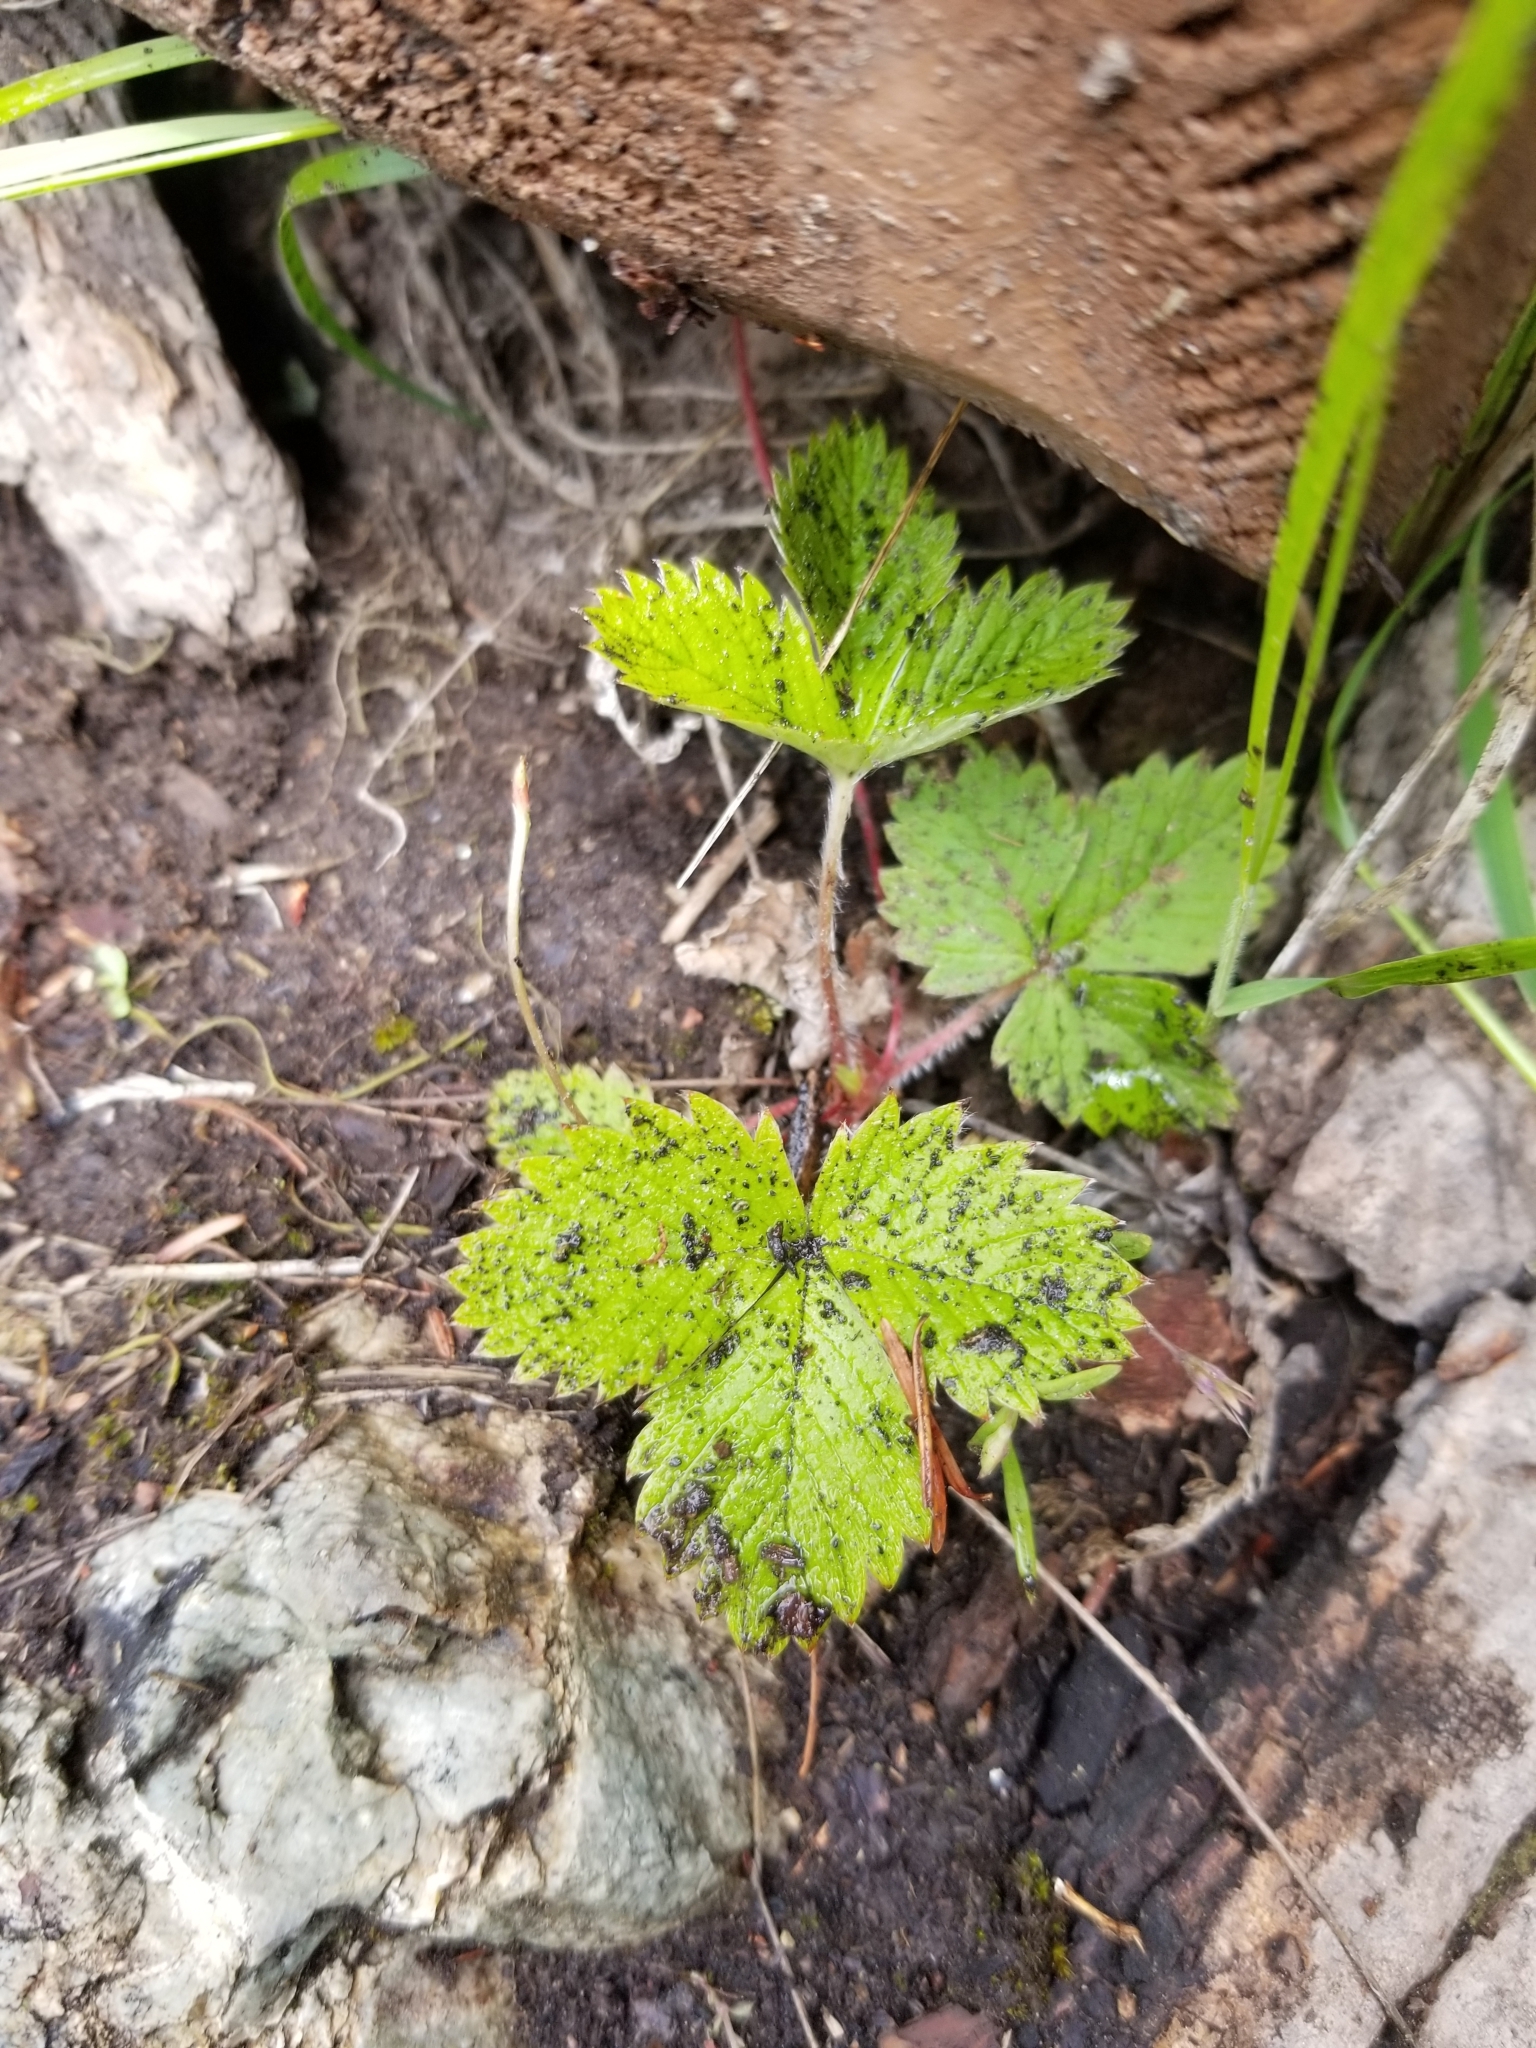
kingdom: Plantae
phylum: Tracheophyta
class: Magnoliopsida
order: Rosales
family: Rosaceae
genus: Fragaria
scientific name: Fragaria vesca
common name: Wild strawberry
